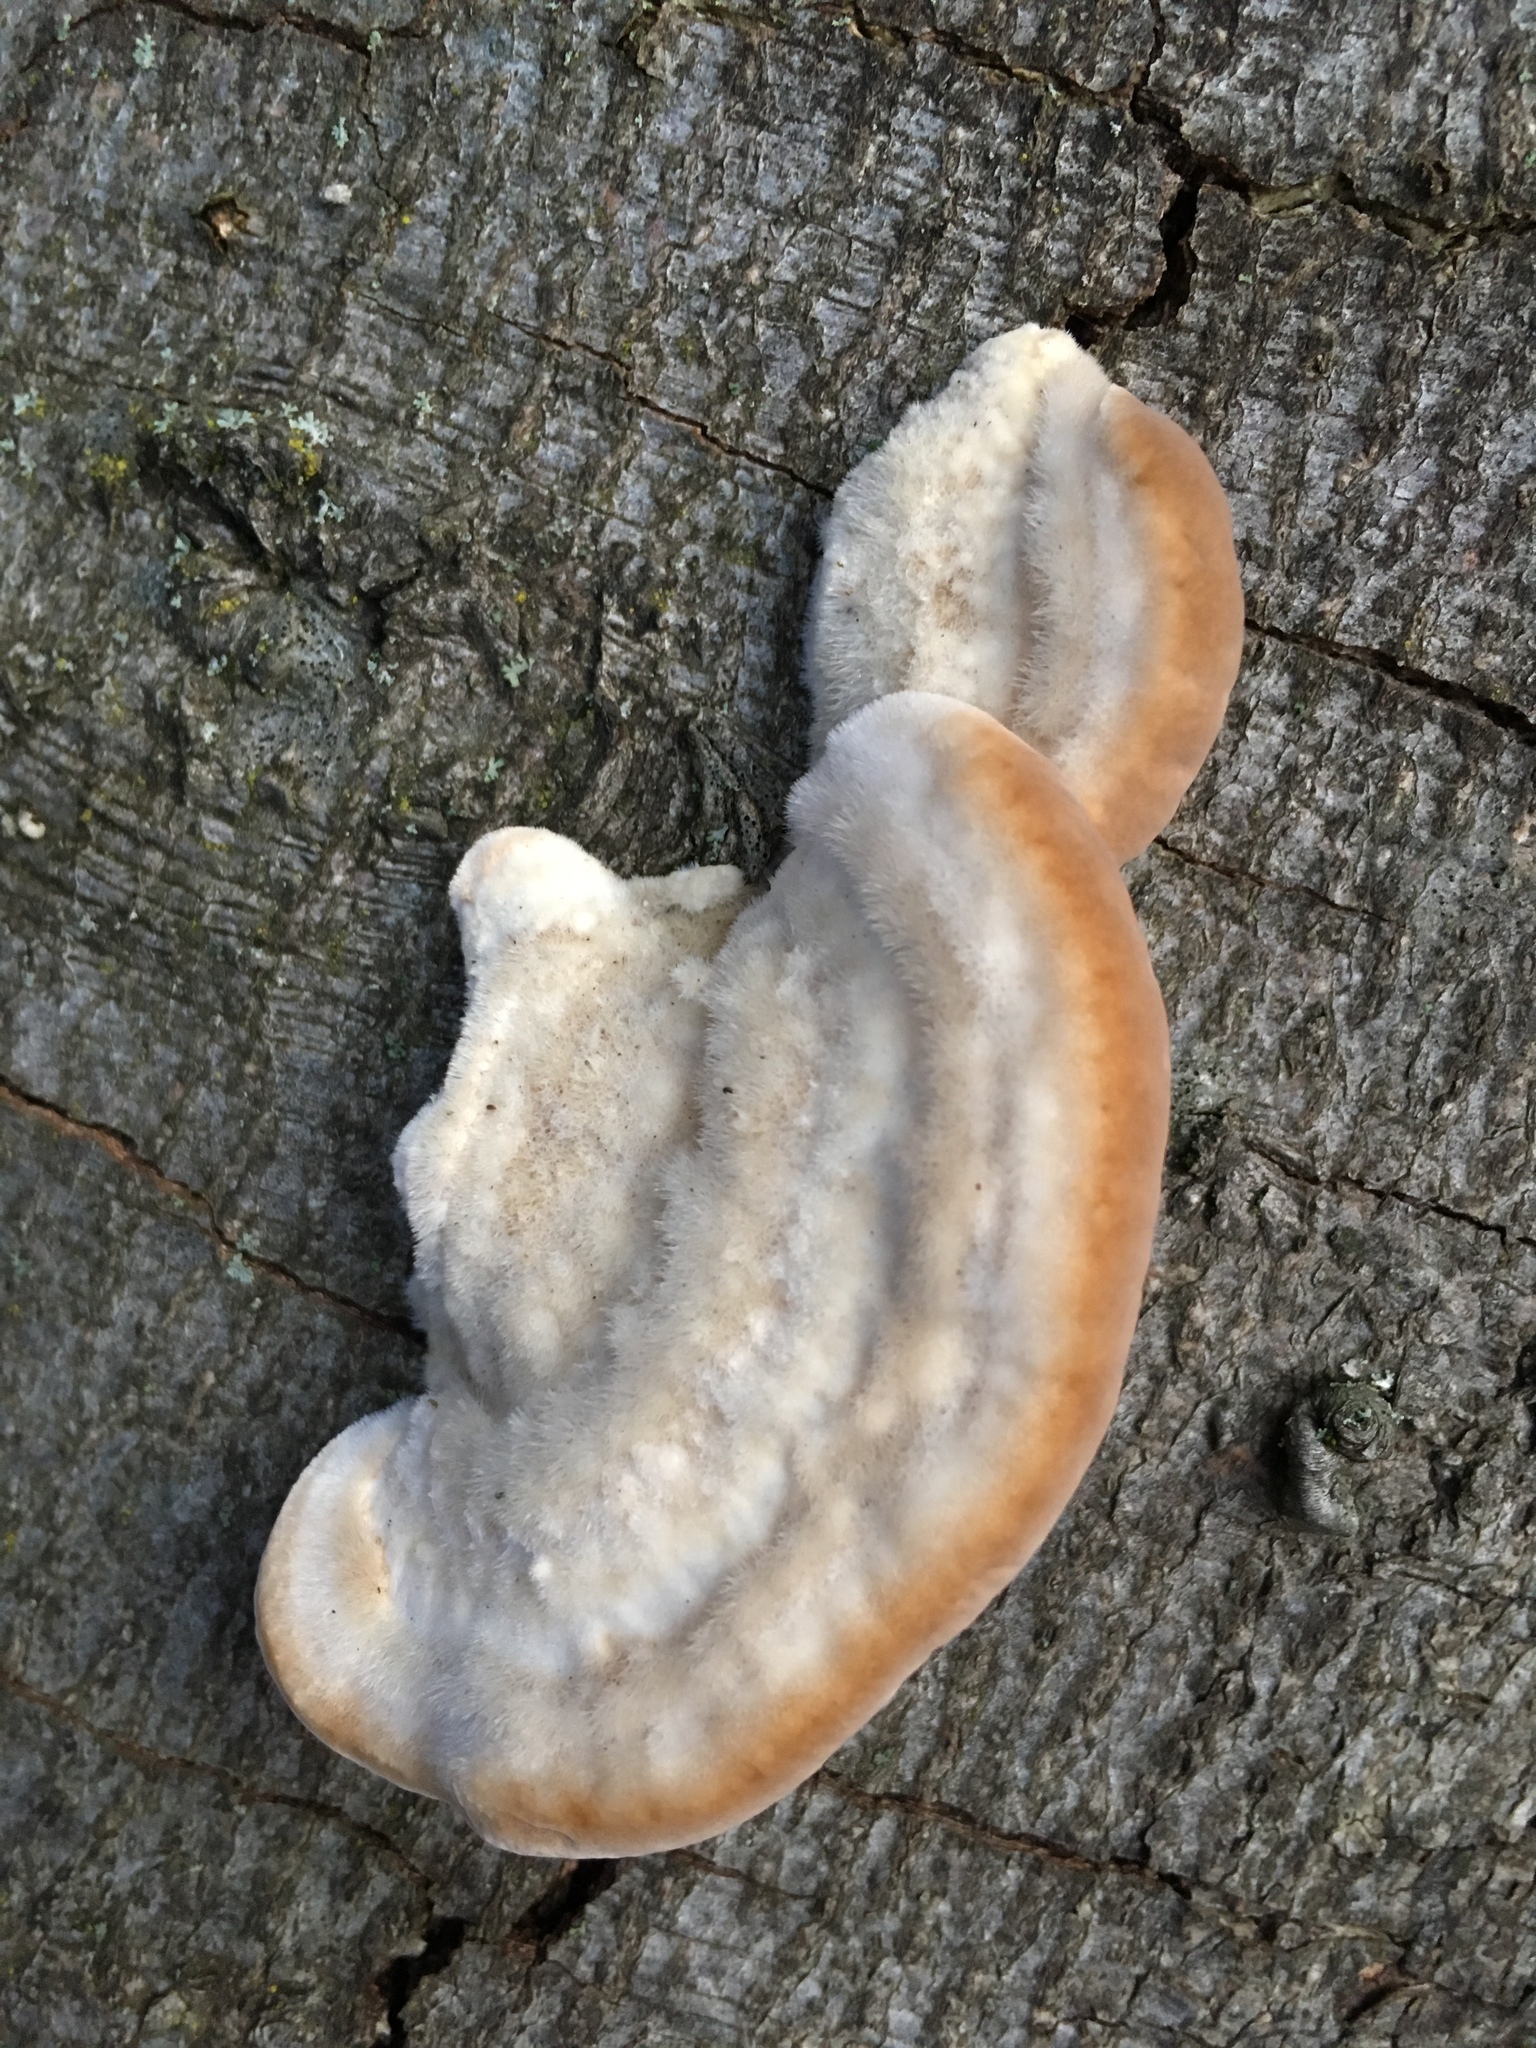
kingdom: Fungi
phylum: Basidiomycota
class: Agaricomycetes
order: Polyporales
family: Polyporaceae
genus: Trametes
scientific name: Trametes hirsuta
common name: Hairy bracket
